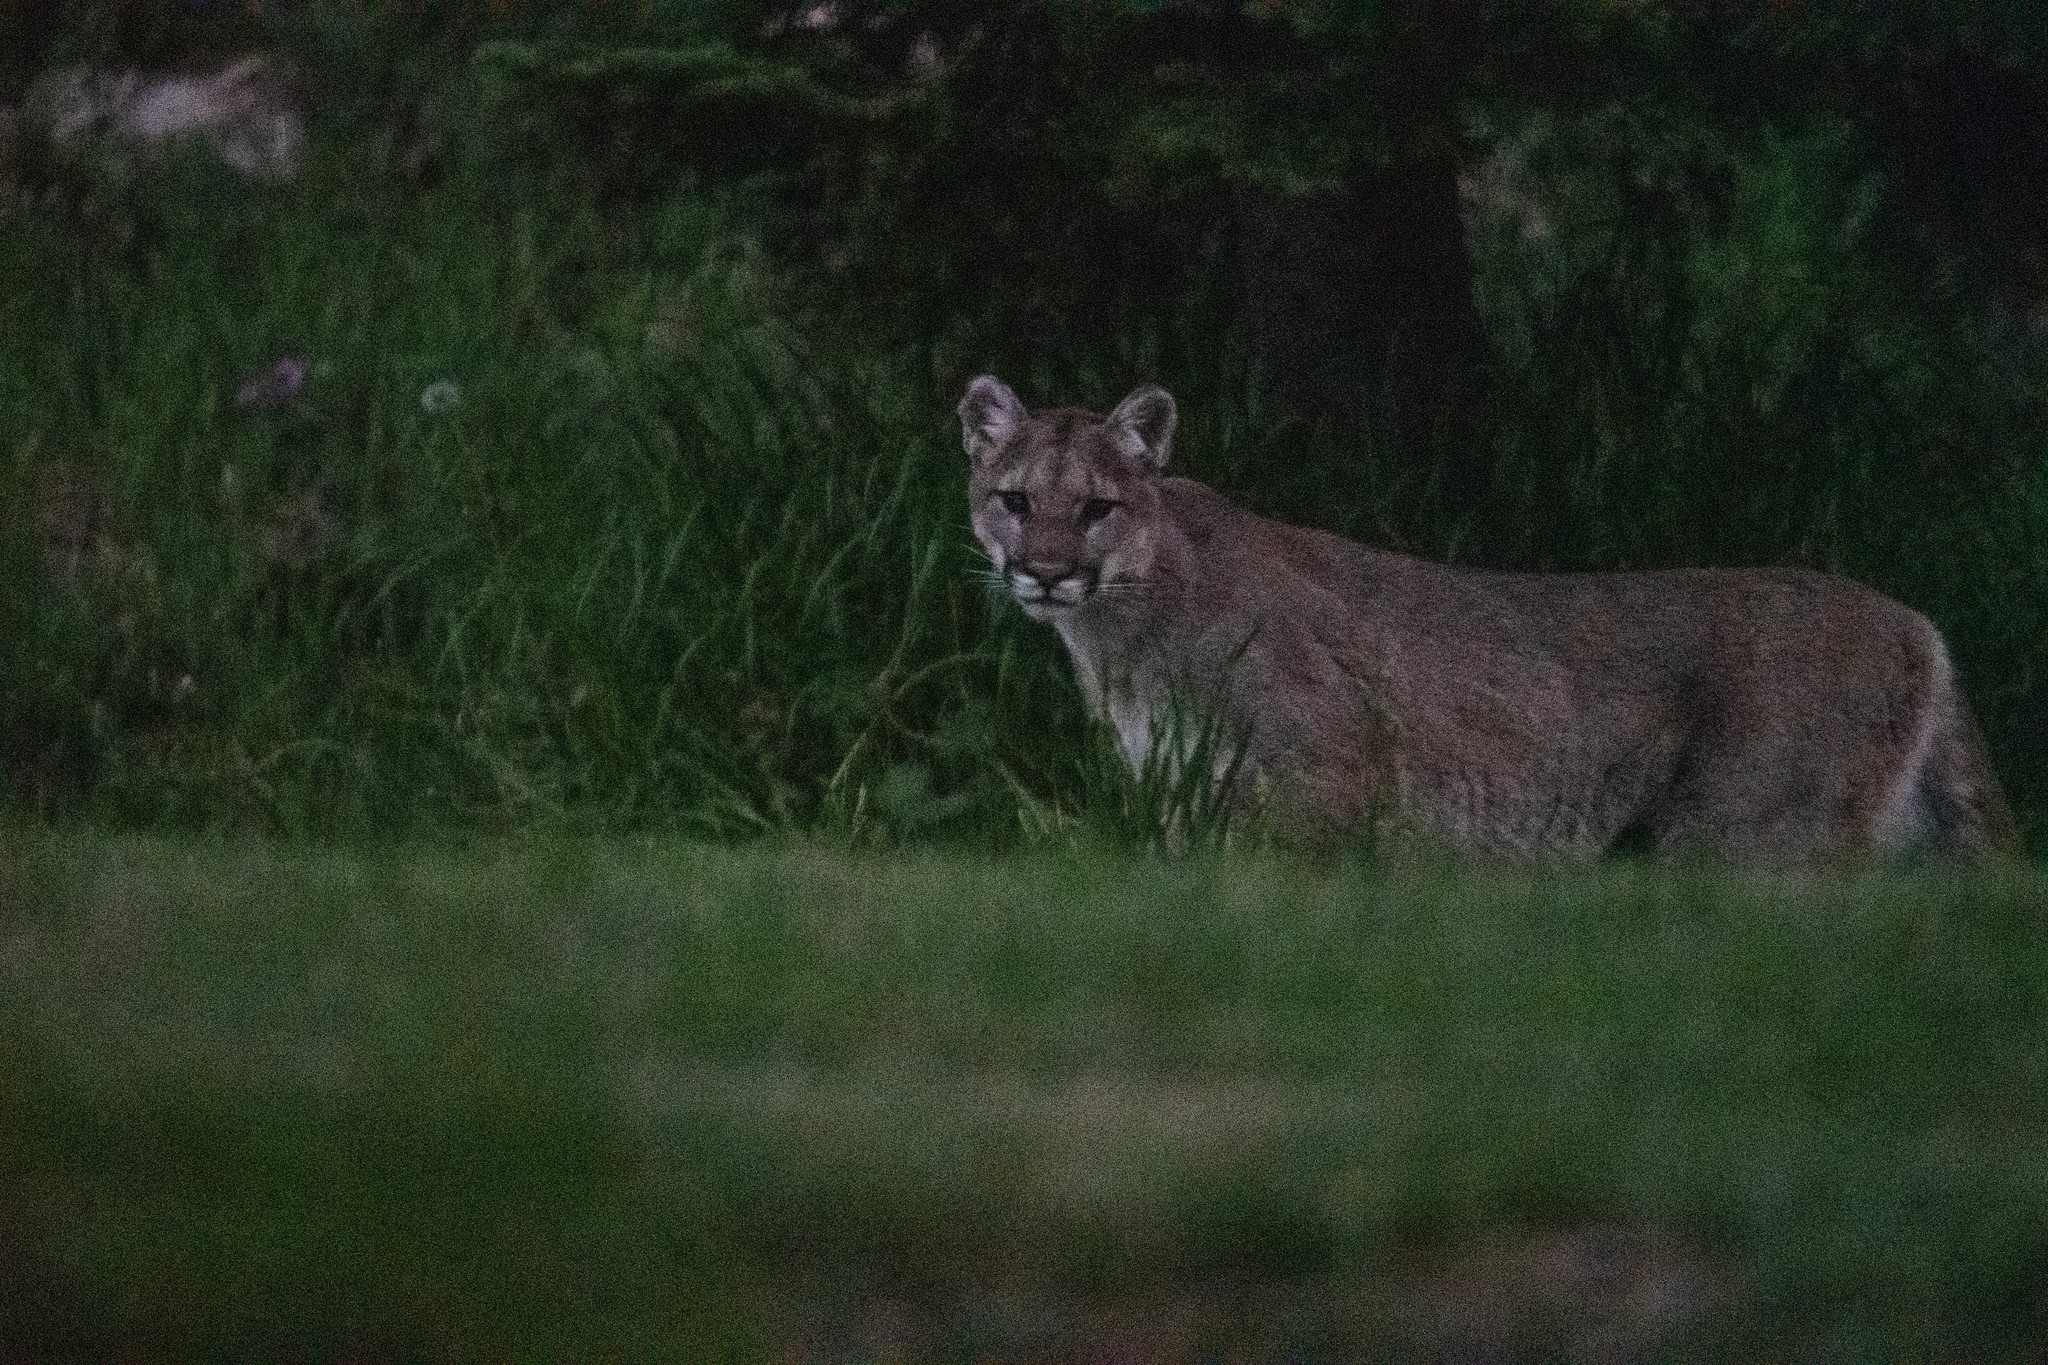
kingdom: Animalia
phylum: Chordata
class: Mammalia
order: Carnivora
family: Felidae
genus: Puma
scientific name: Puma concolor
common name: Puma
